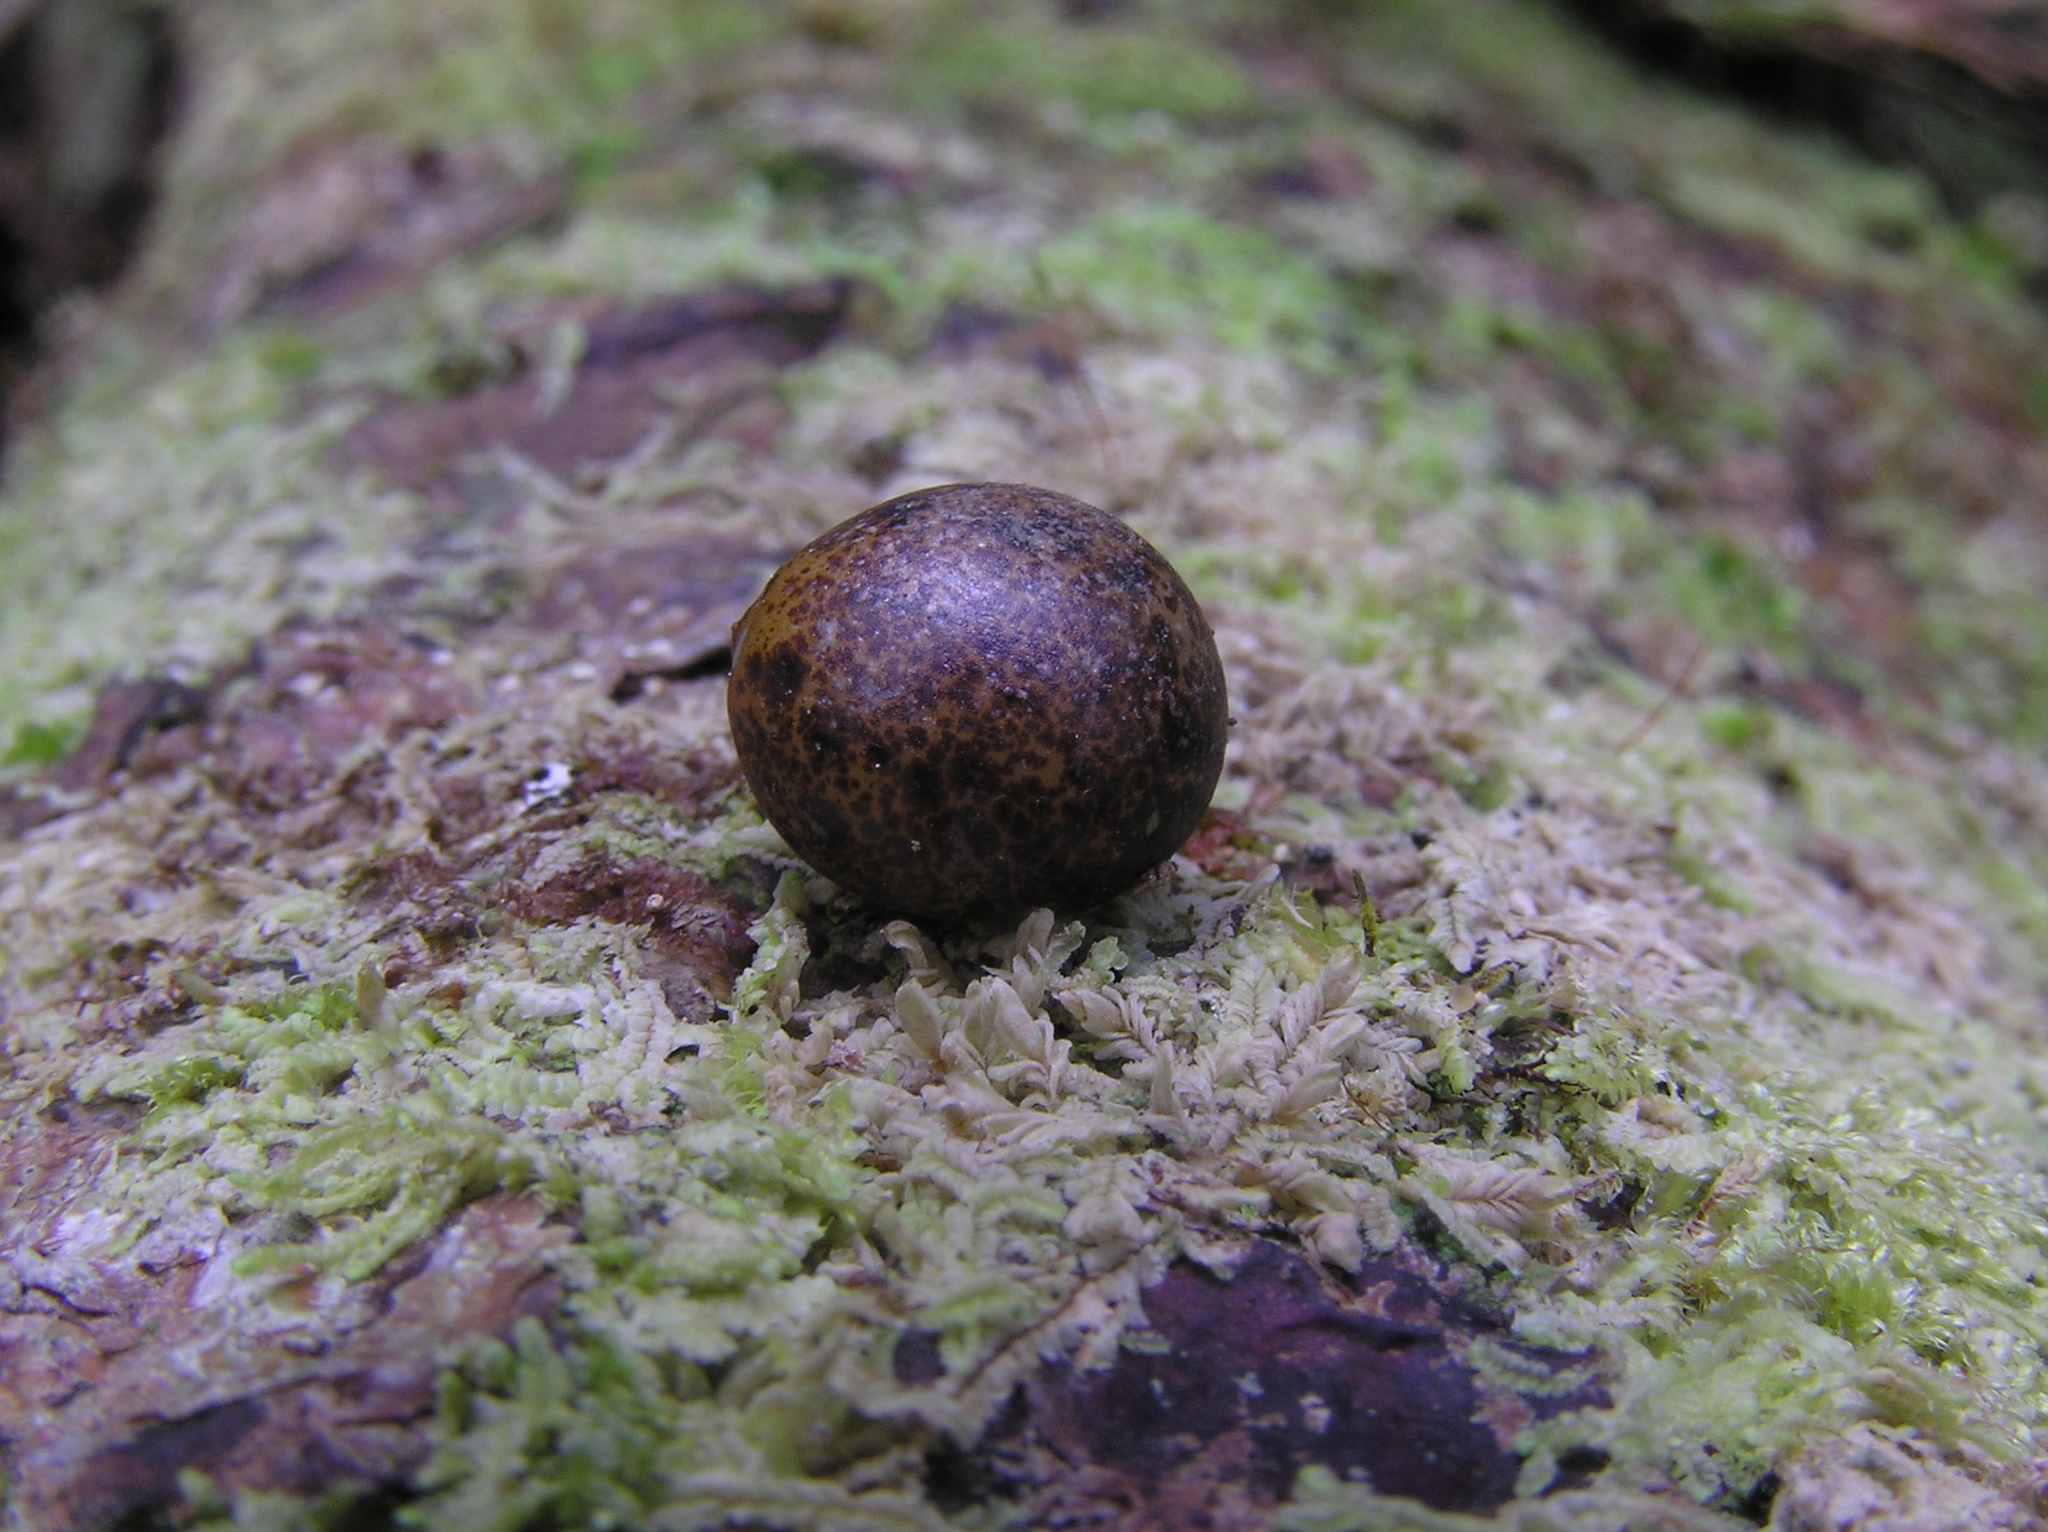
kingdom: Plantae
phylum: Tracheophyta
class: Liliopsida
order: Liliales
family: Ripogonaceae
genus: Ripogonum
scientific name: Ripogonum scandens
